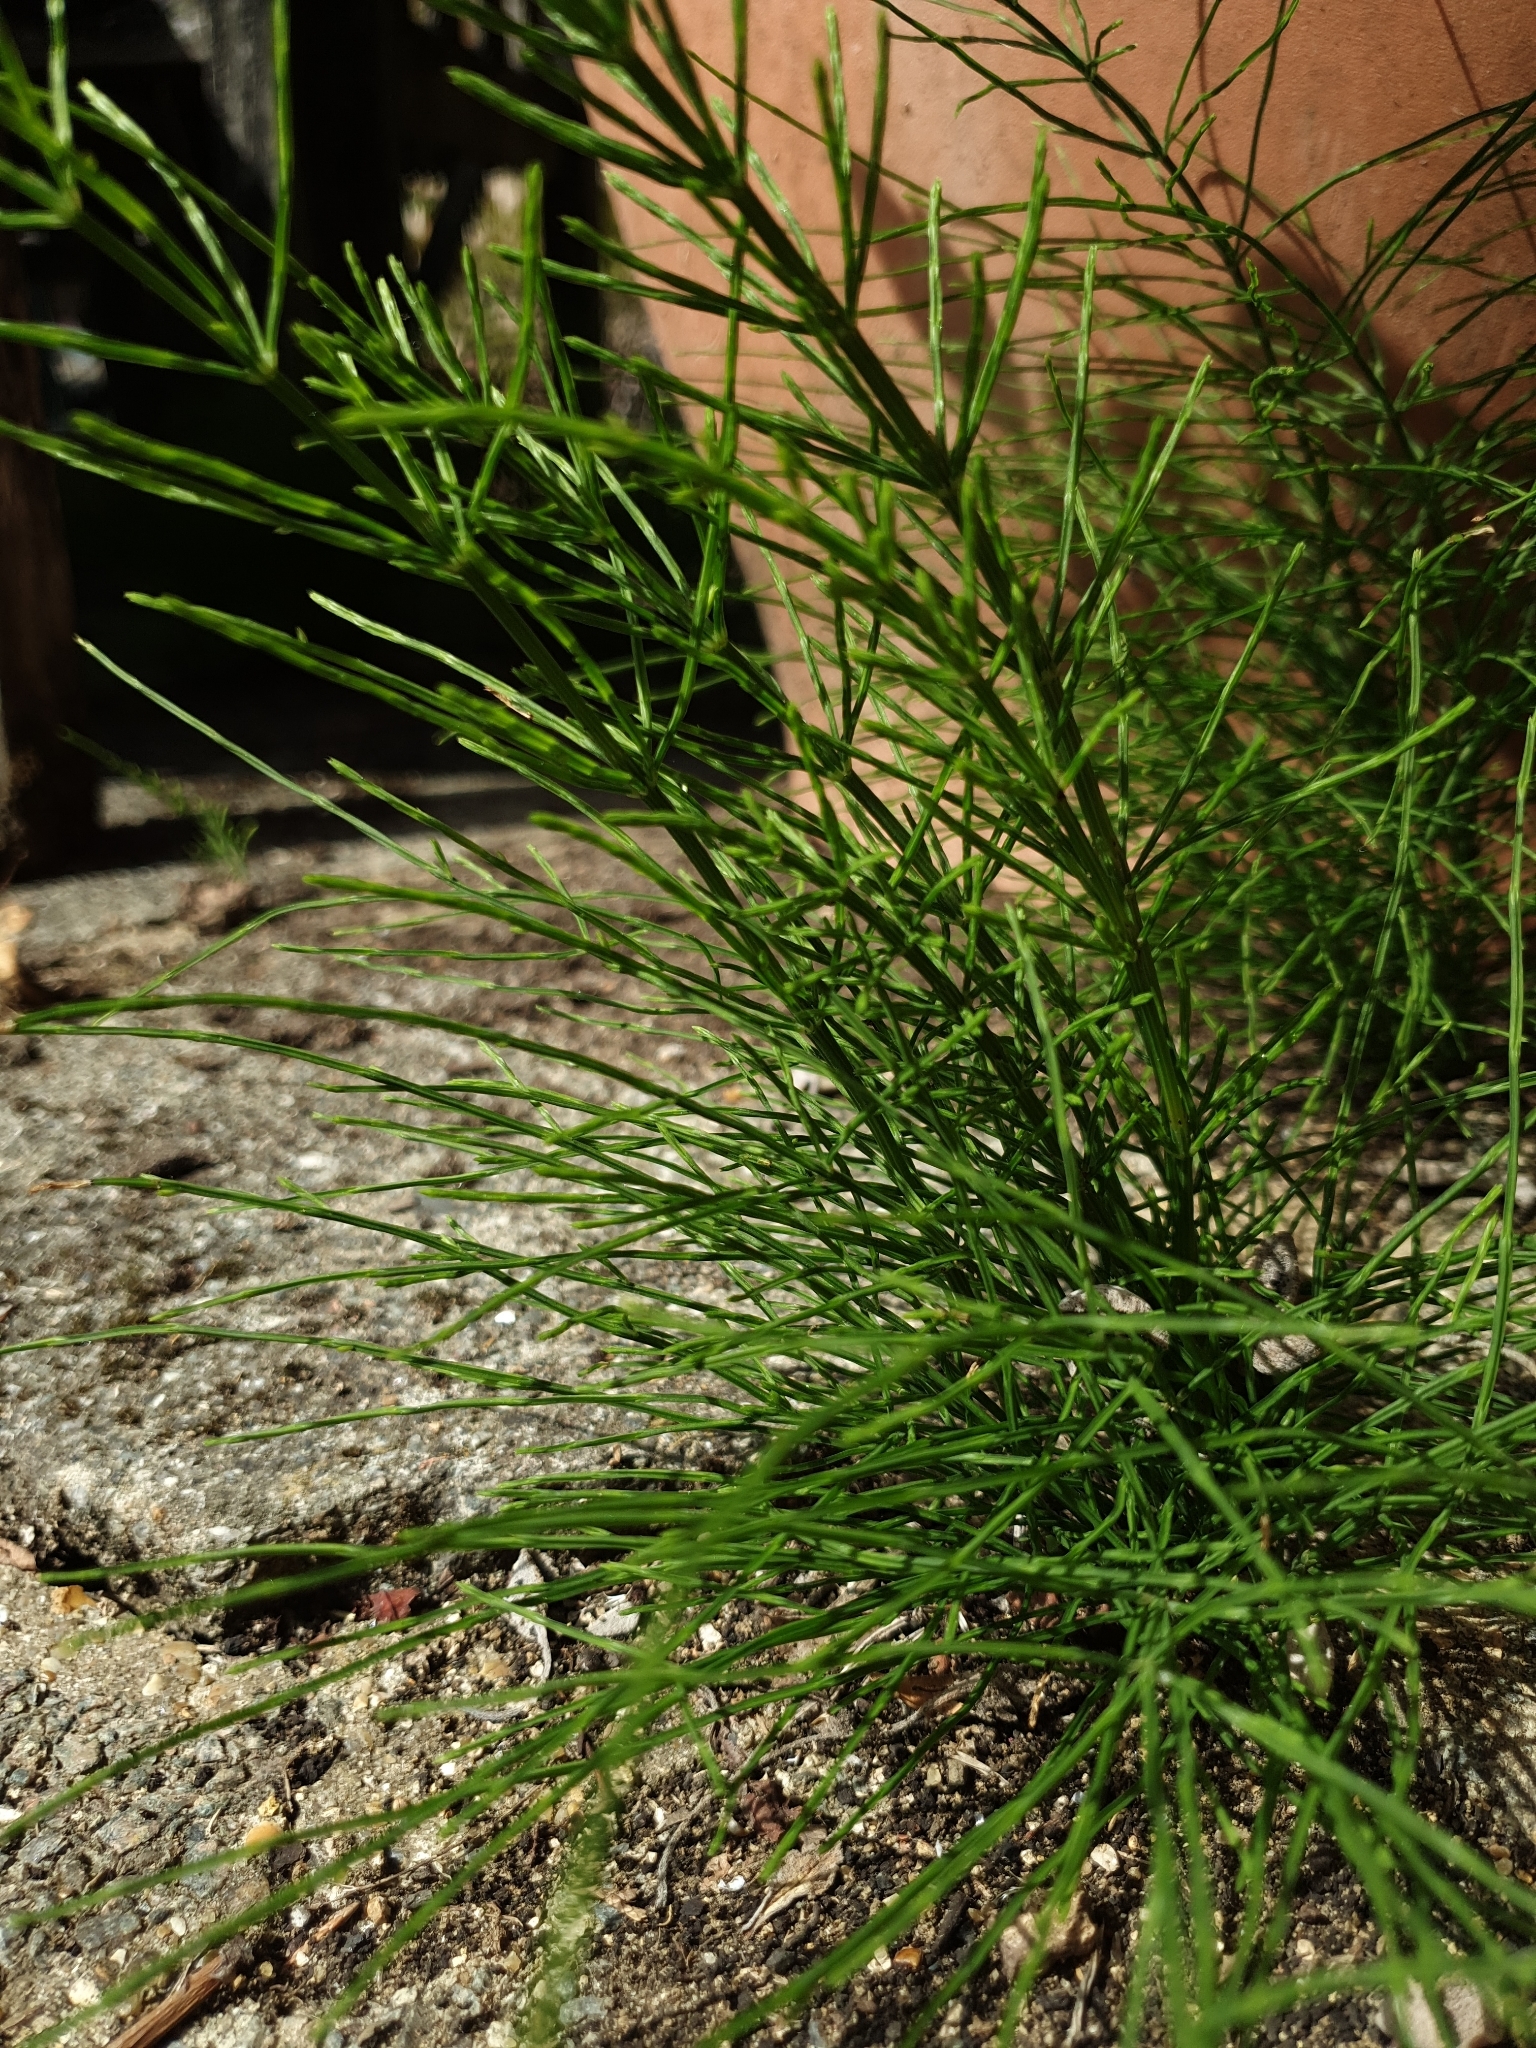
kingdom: Plantae
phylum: Tracheophyta
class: Polypodiopsida
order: Equisetales
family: Equisetaceae
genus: Equisetum
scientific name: Equisetum arvense
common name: Field horsetail
